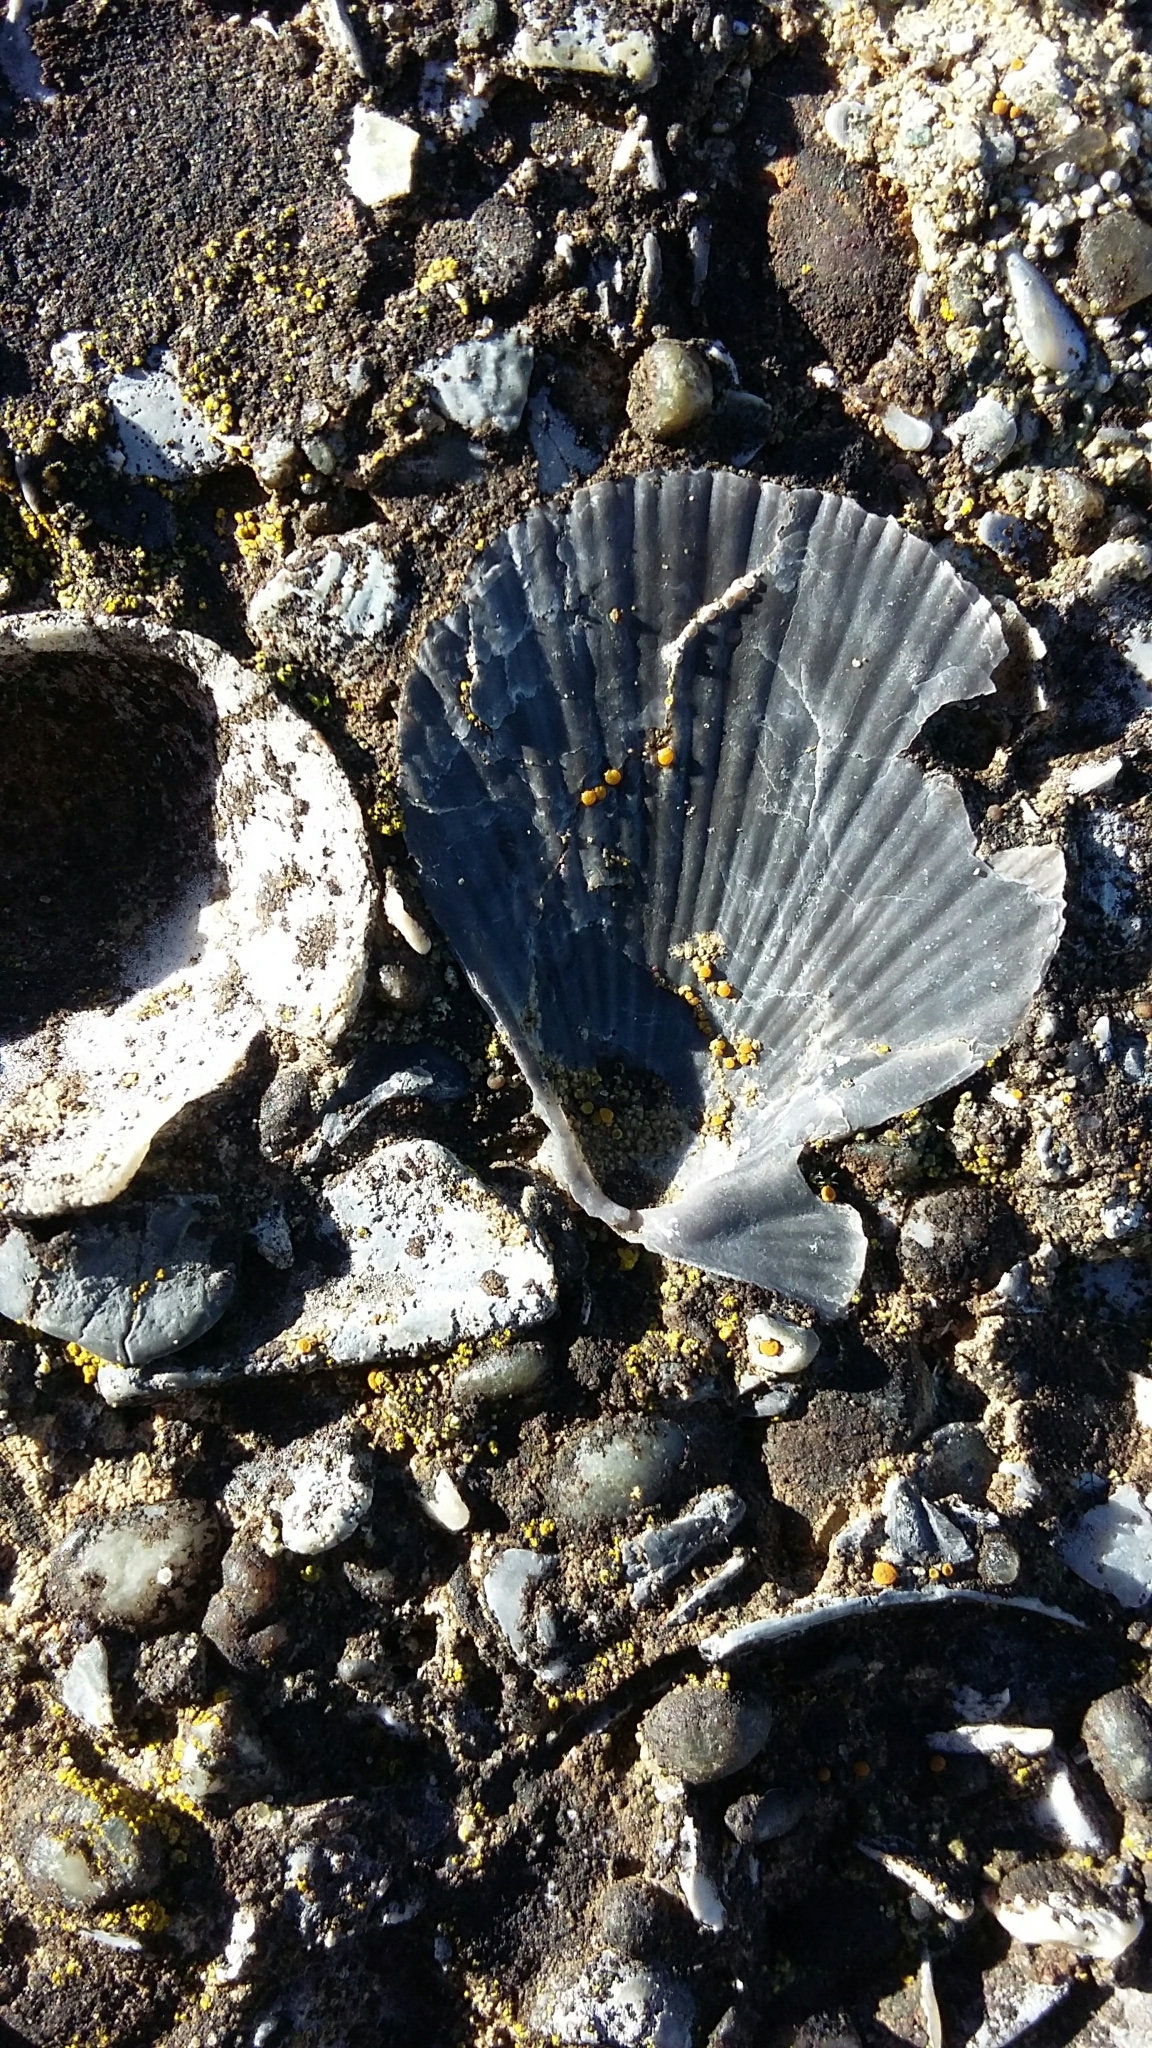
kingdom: Animalia
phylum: Mollusca
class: Bivalvia
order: Pectinida
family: Pectinidae
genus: Talochlamys
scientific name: Talochlamys zelandiae
